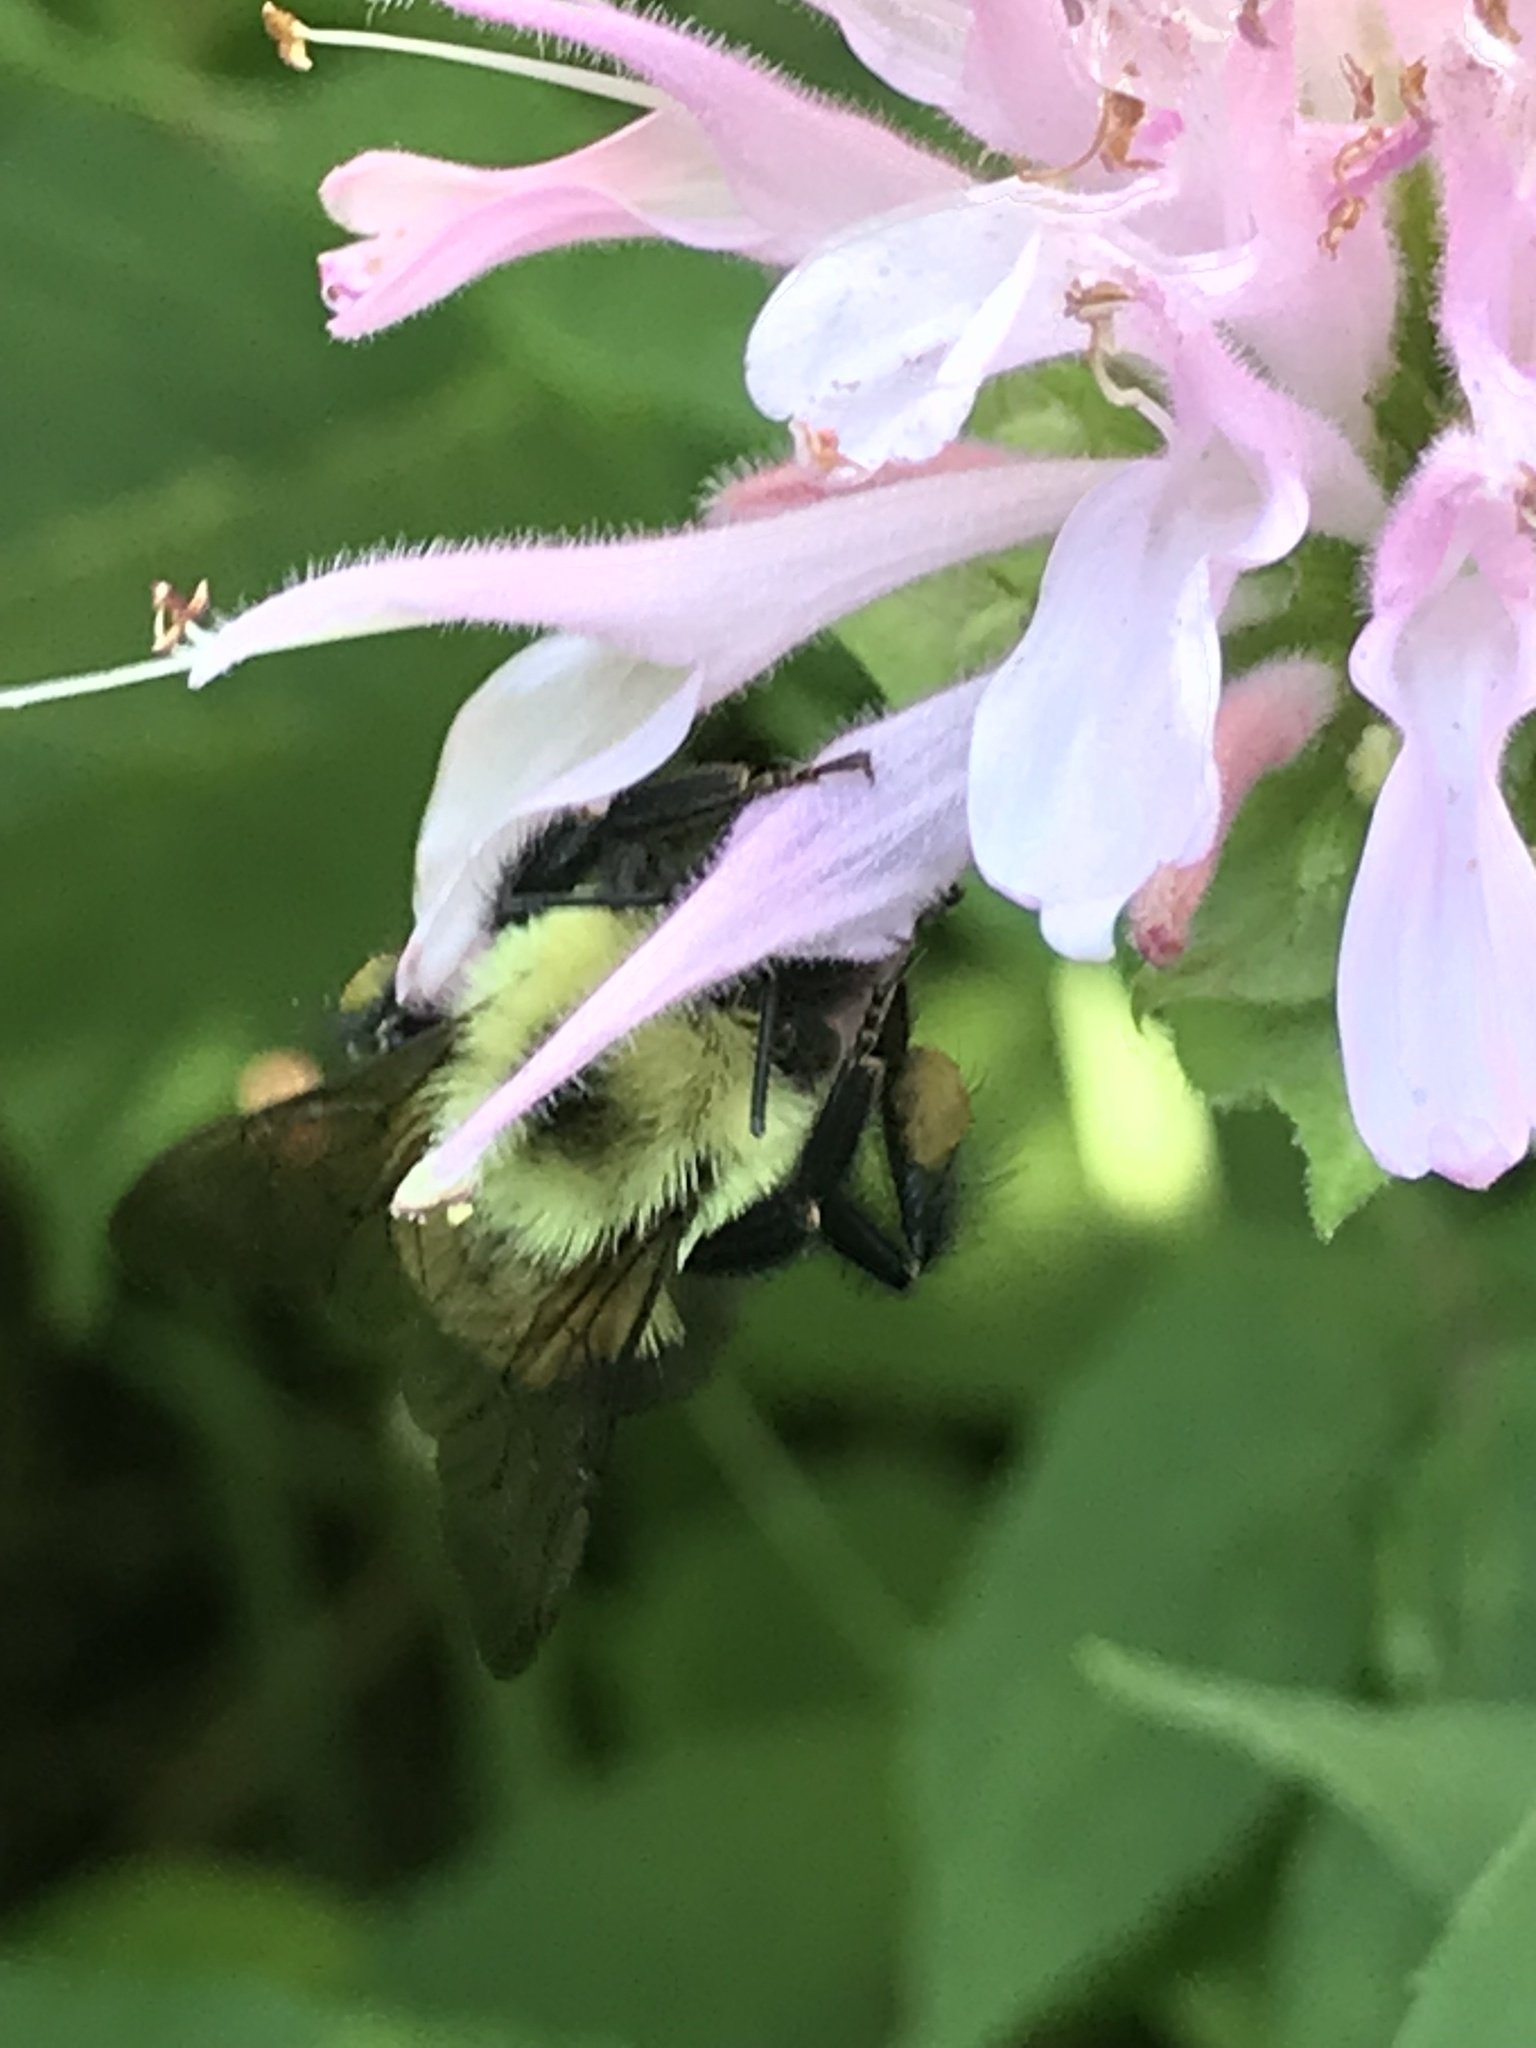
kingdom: Animalia
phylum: Arthropoda
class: Insecta
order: Hymenoptera
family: Apidae
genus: Bombus
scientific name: Bombus bimaculatus
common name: Two-spotted bumble bee
